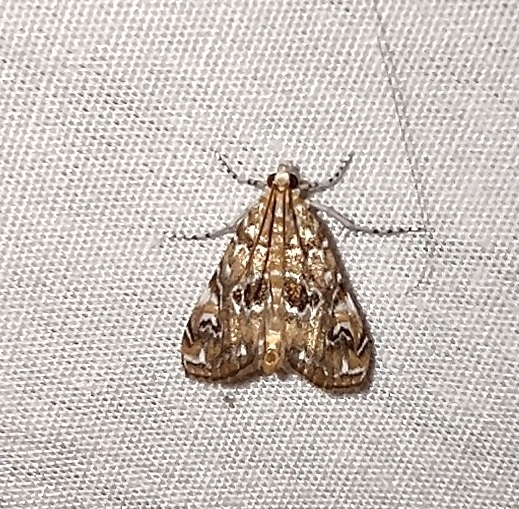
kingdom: Animalia
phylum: Arthropoda
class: Insecta
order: Lepidoptera
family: Crambidae
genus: Elophila
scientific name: Elophila gyralis
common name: Waterlily borer moth
